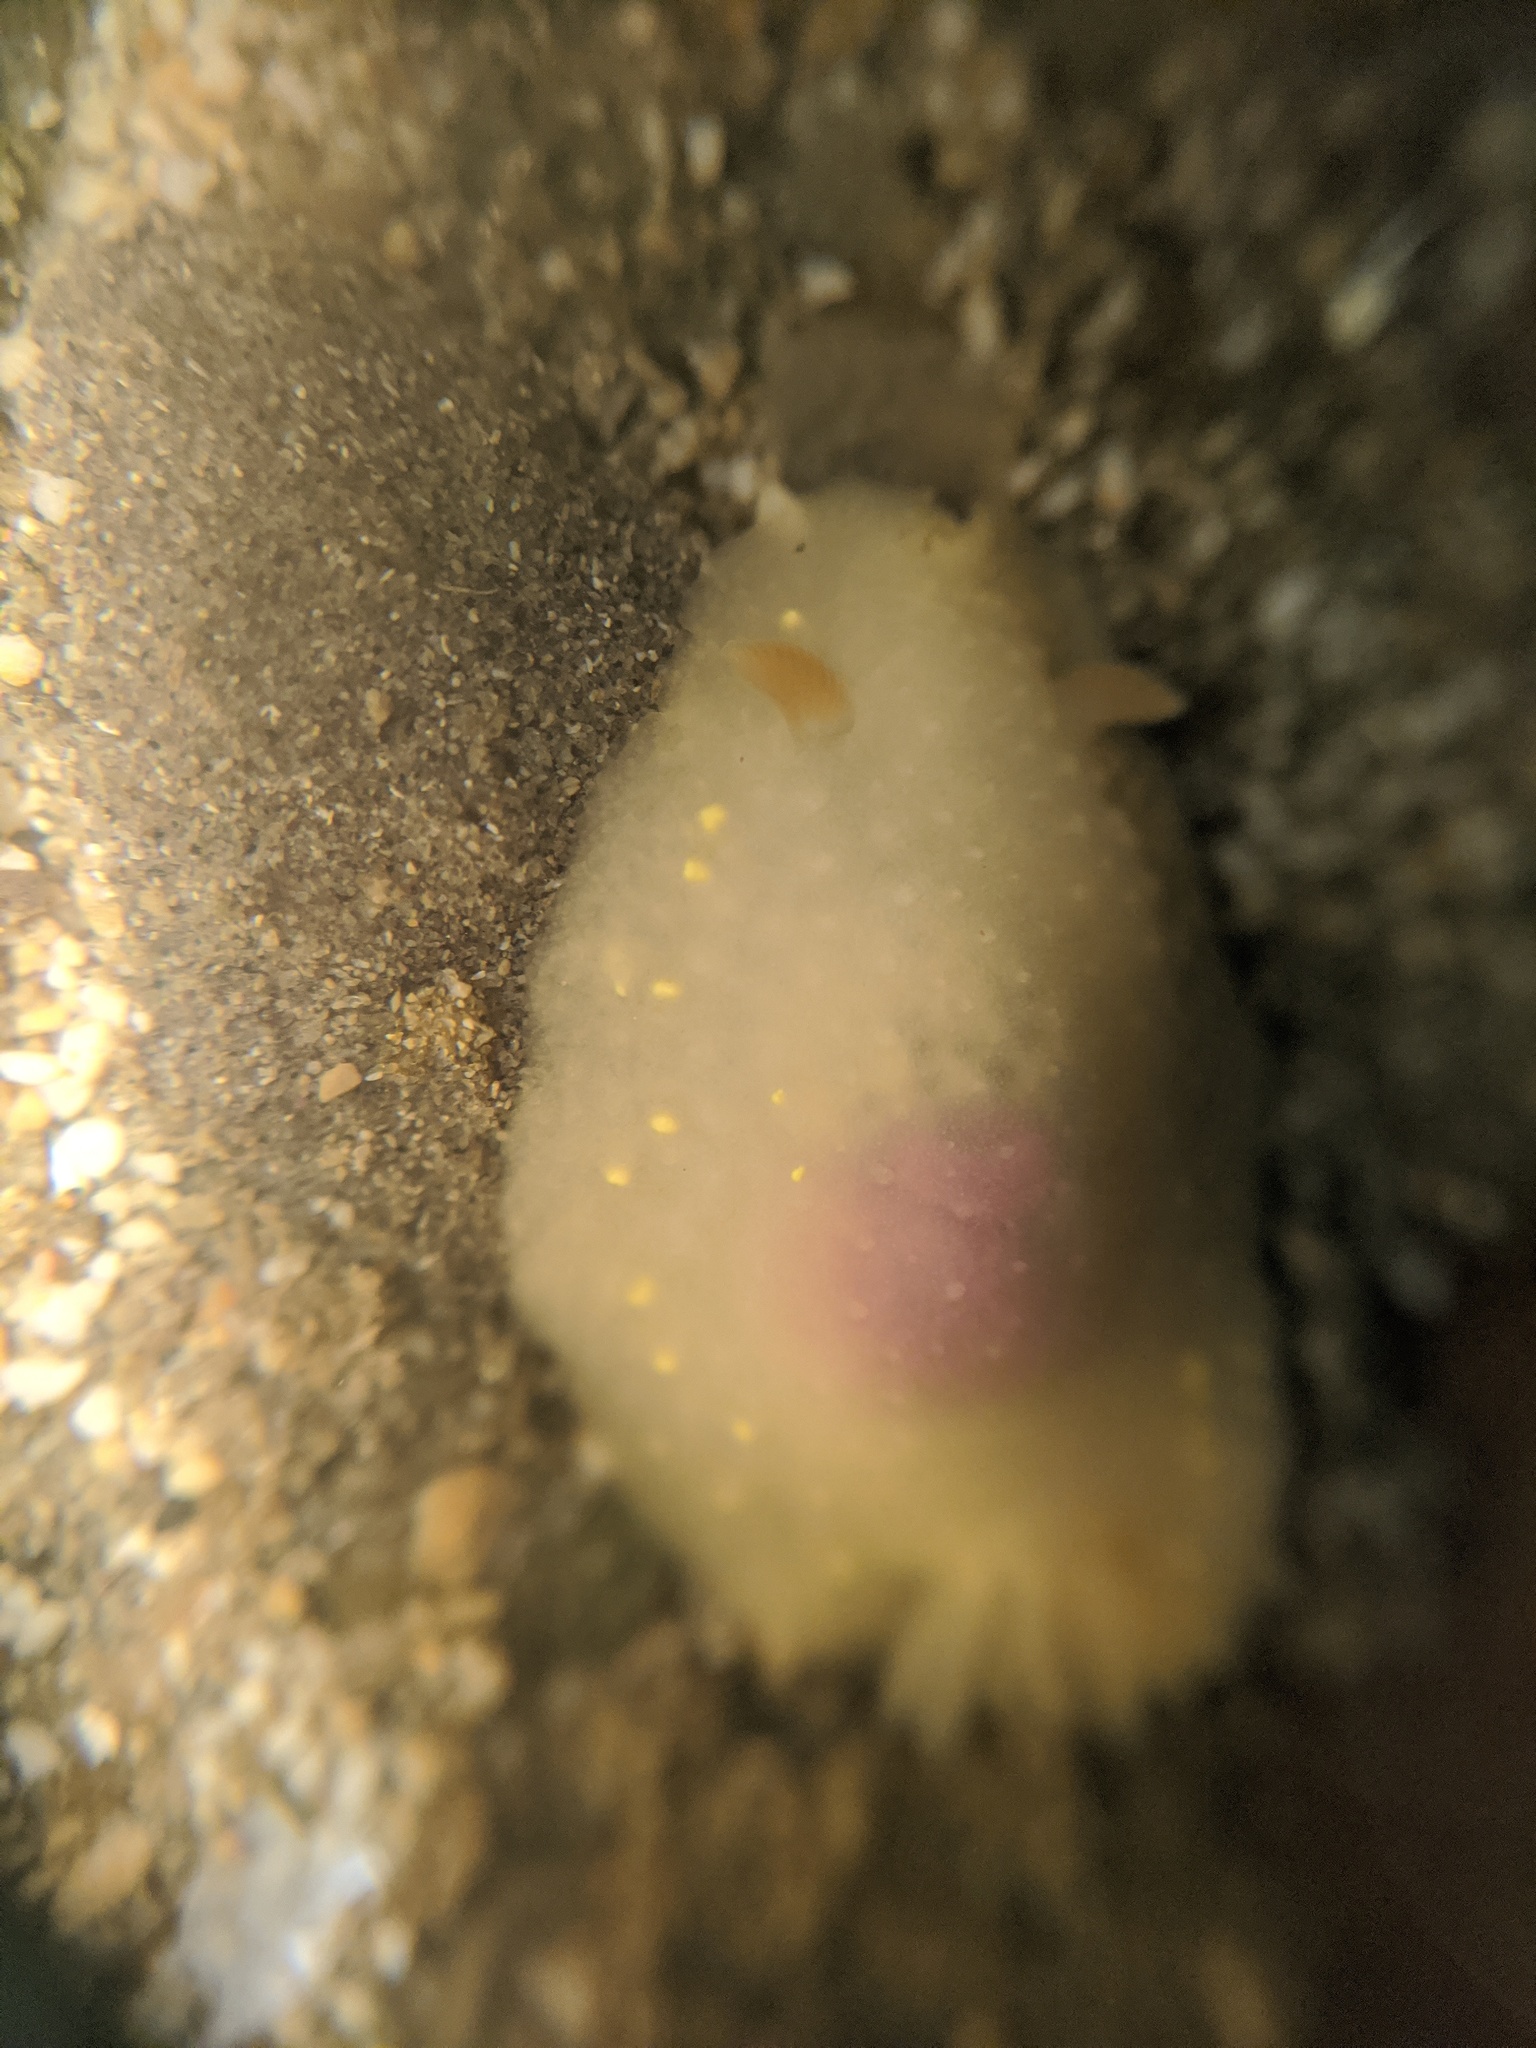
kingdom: Animalia
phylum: Mollusca
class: Gastropoda
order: Nudibranchia
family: Cadlinidae
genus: Cadlina
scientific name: Cadlina modesta
